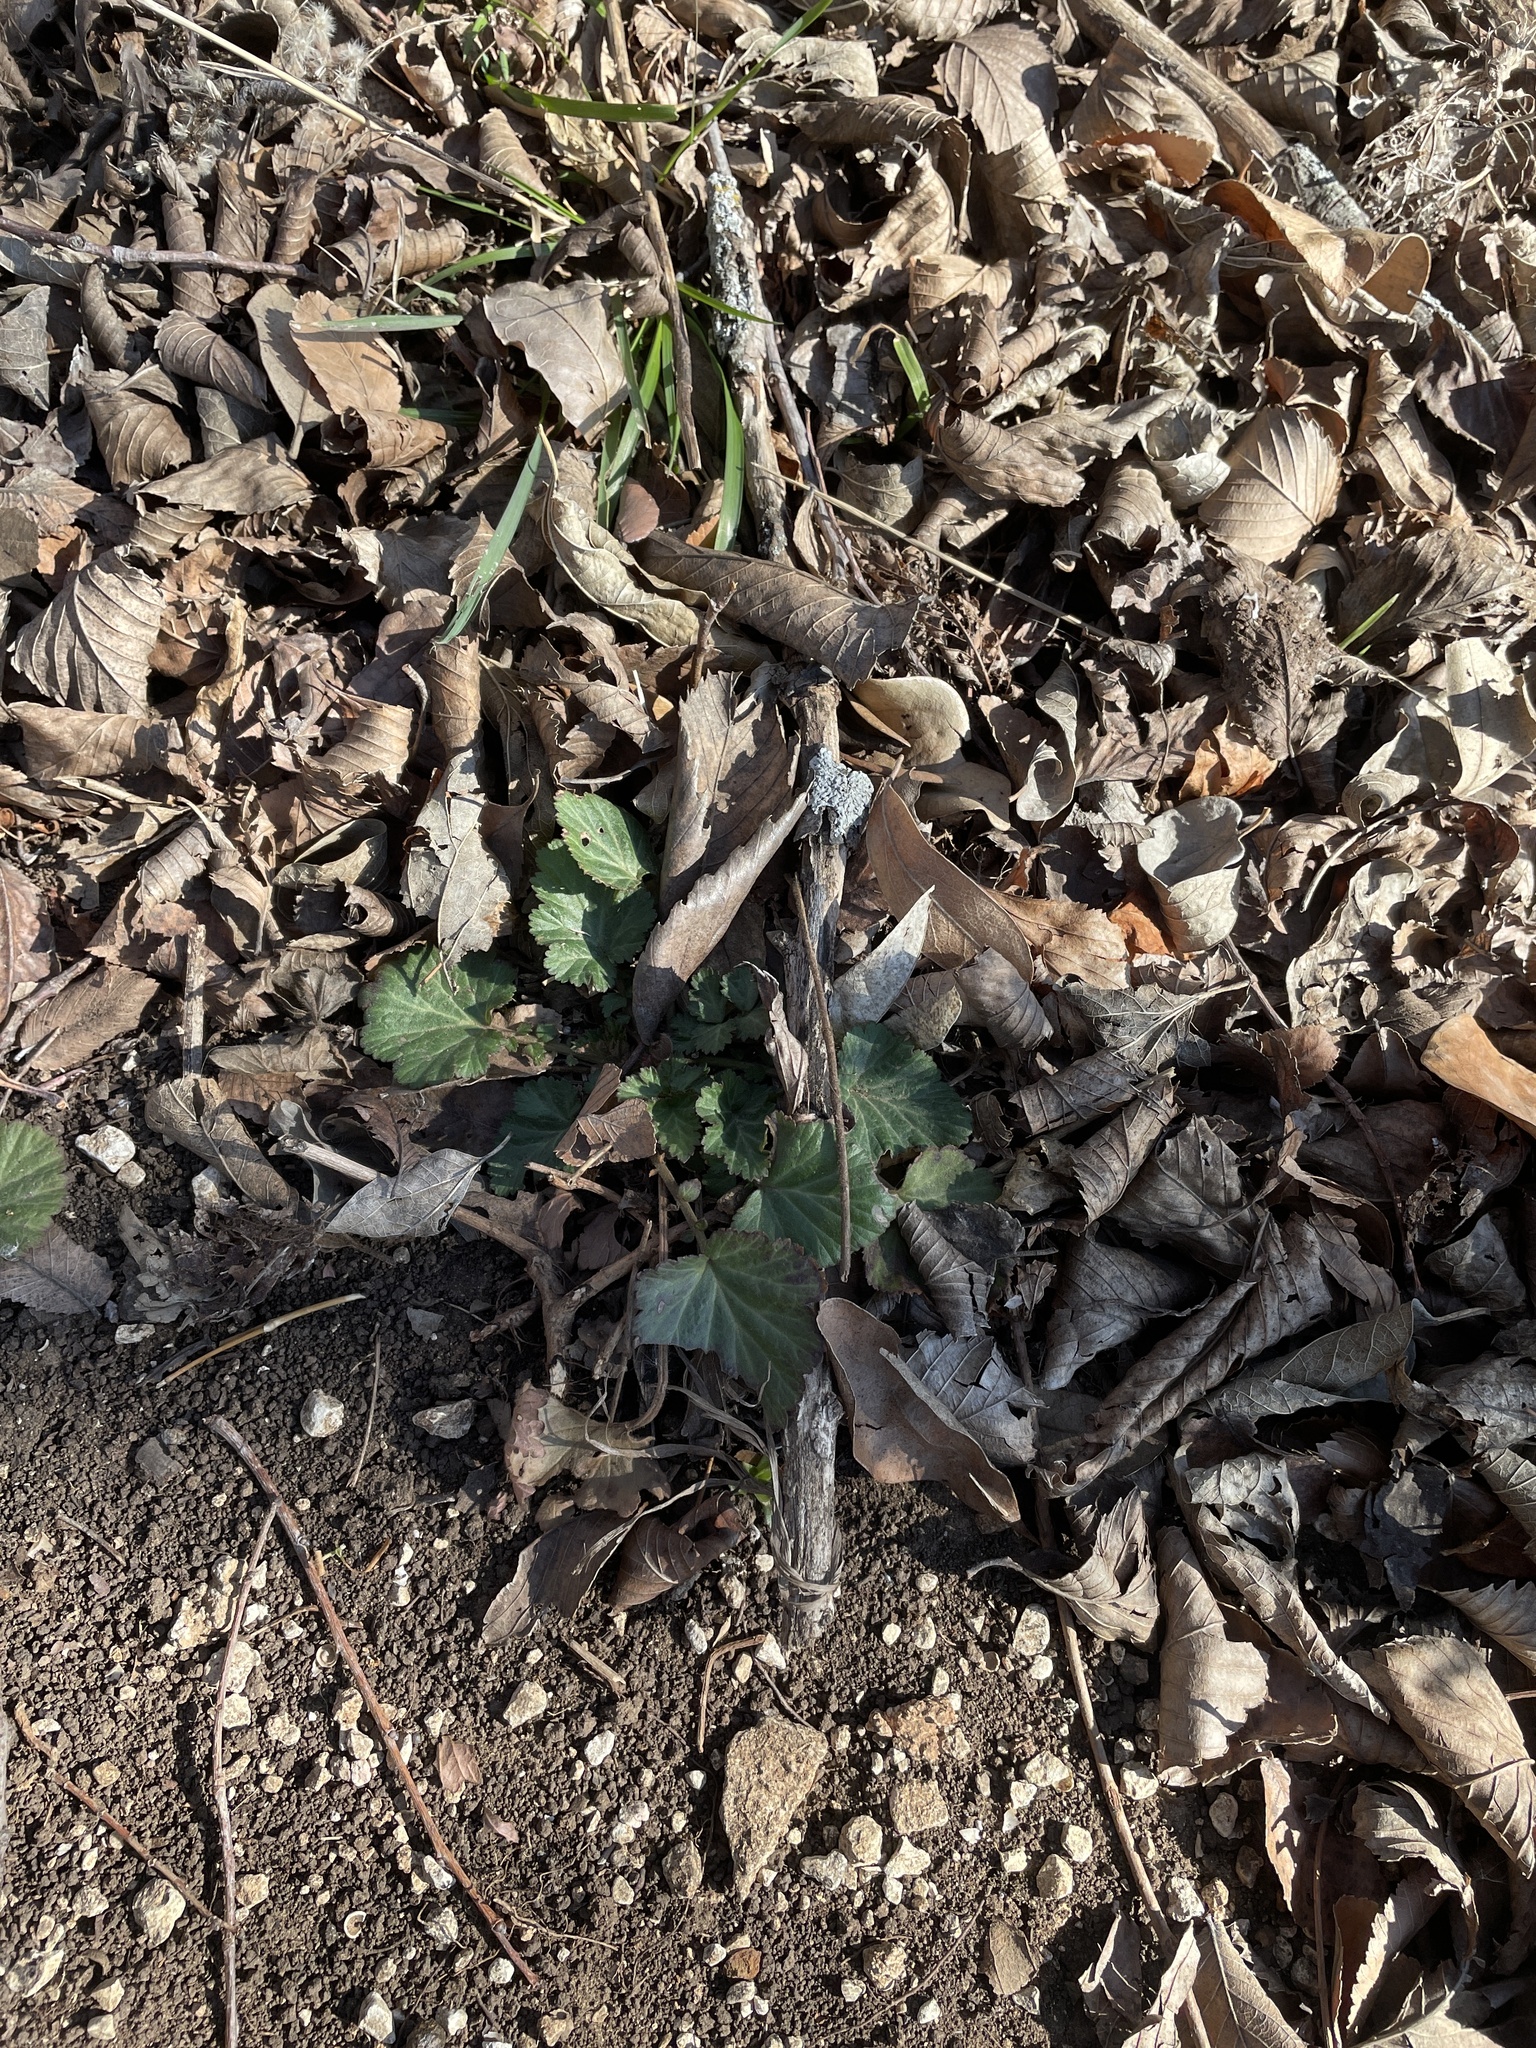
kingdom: Plantae
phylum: Tracheophyta
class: Magnoliopsida
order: Rosales
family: Rosaceae
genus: Geum
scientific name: Geum canadense
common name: White avens
